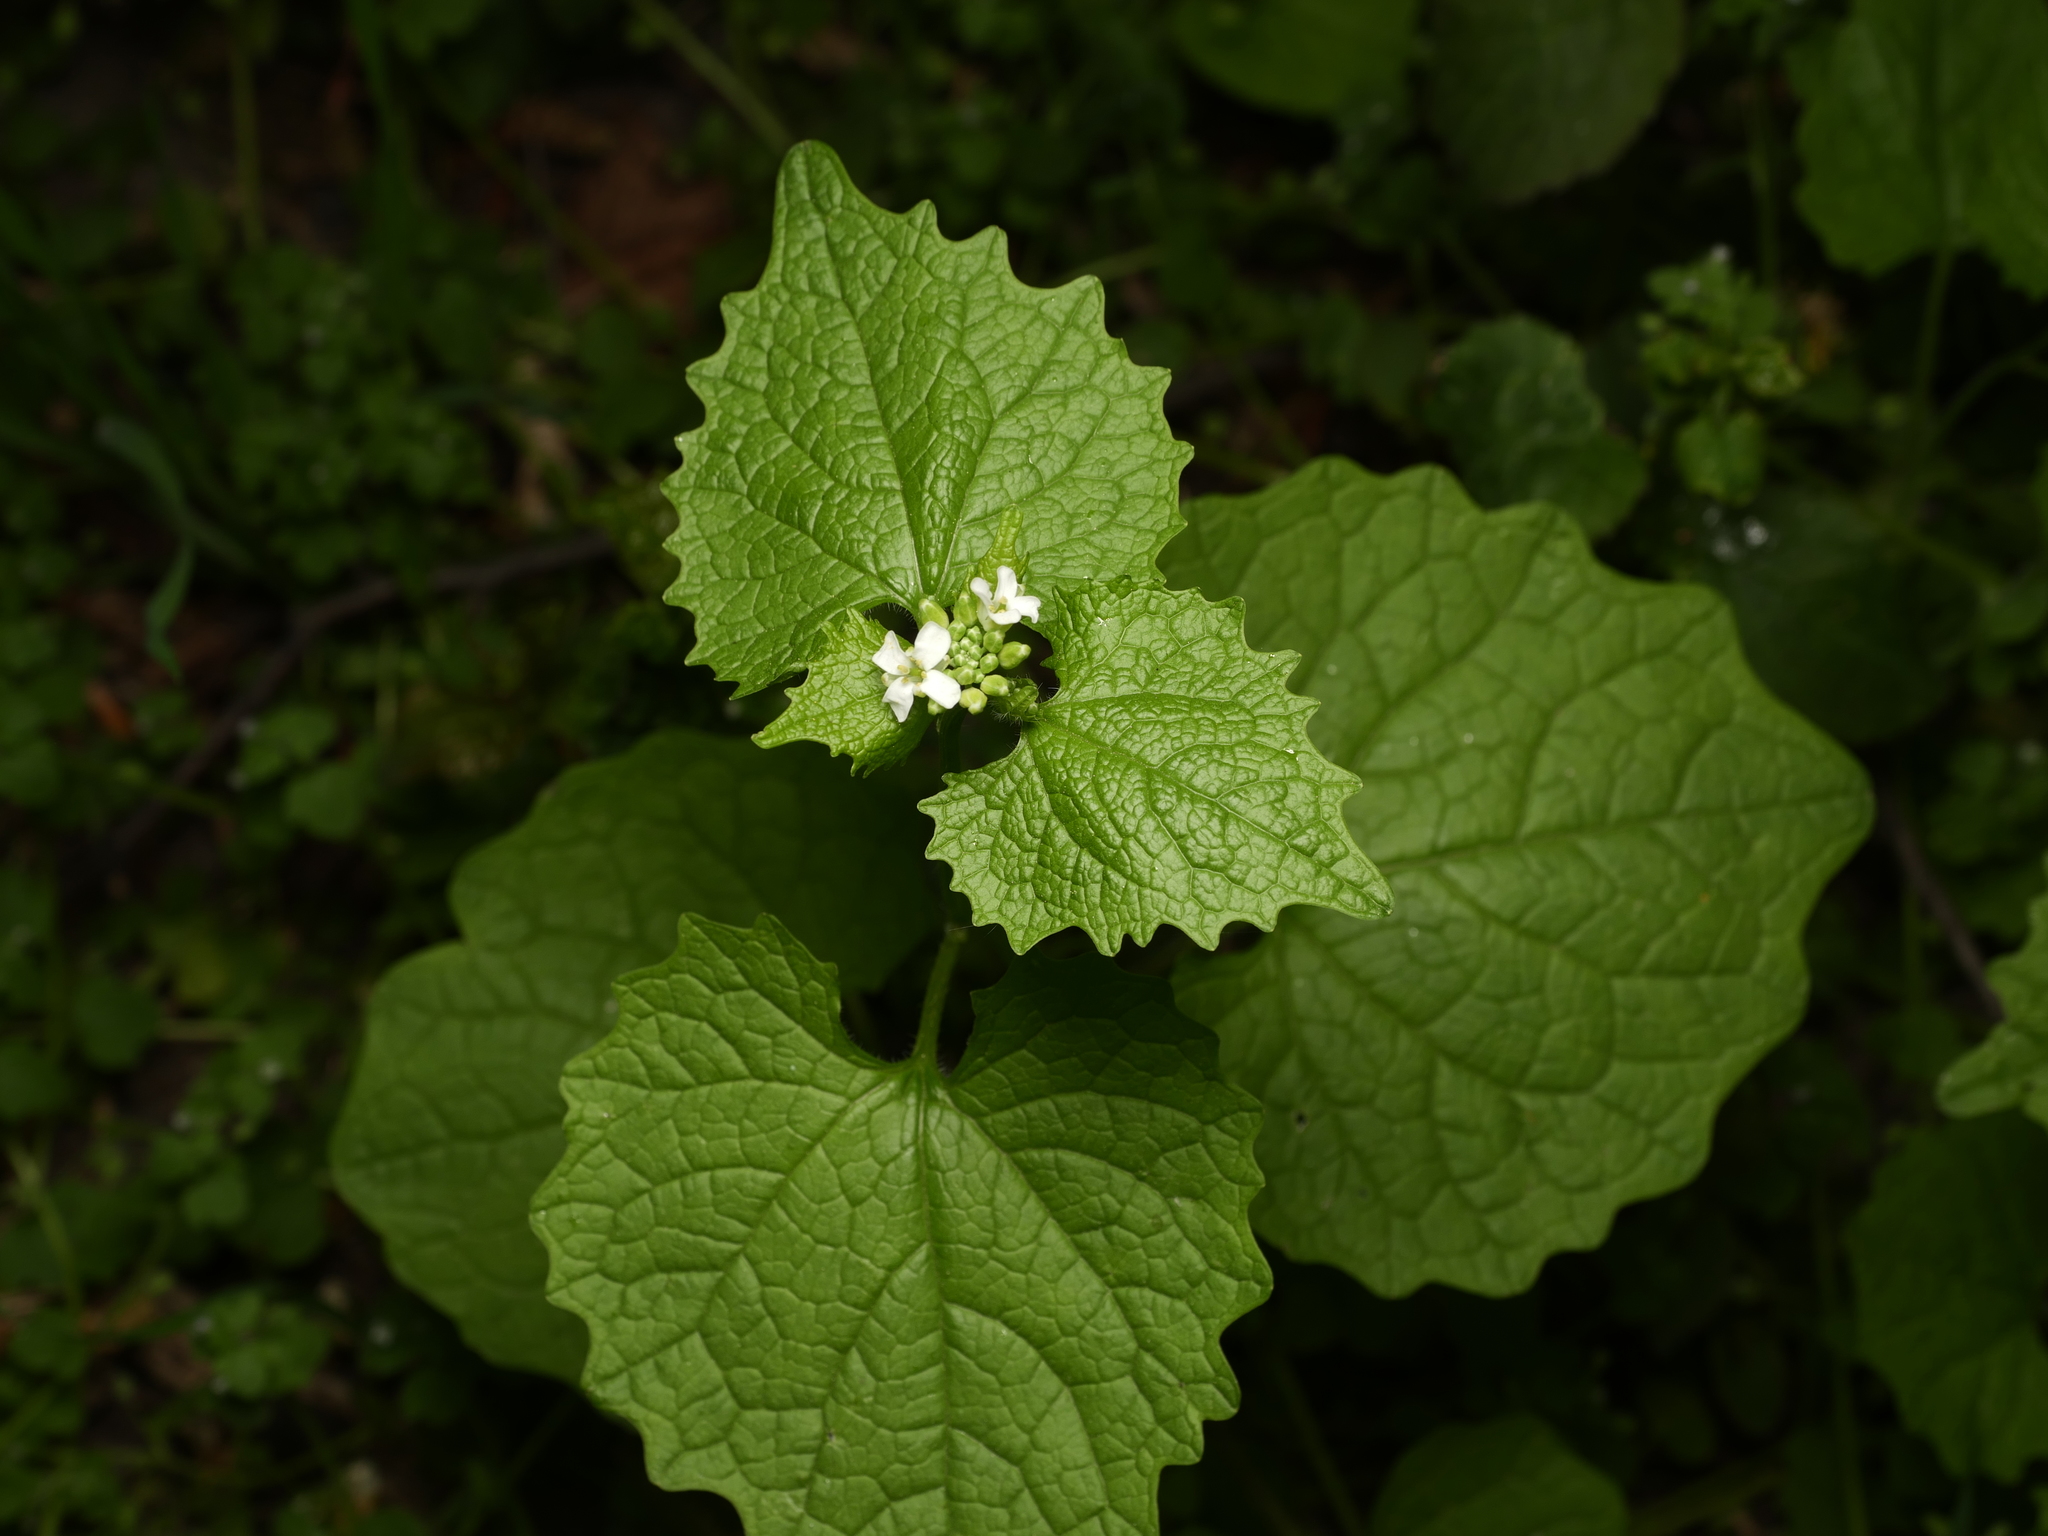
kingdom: Plantae
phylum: Tracheophyta
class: Magnoliopsida
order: Brassicales
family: Brassicaceae
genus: Alliaria
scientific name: Alliaria petiolata
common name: Garlic mustard
